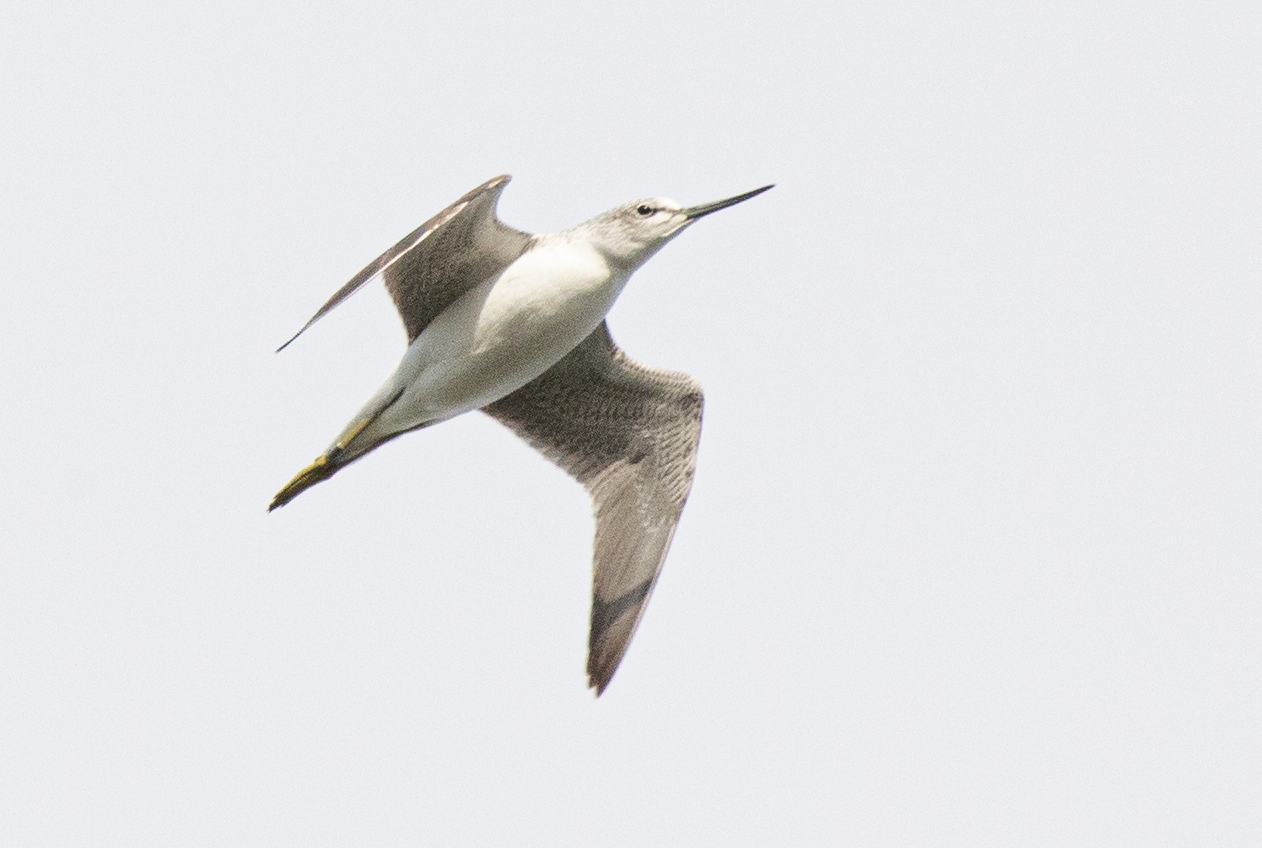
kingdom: Animalia
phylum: Chordata
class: Aves
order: Charadriiformes
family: Scolopacidae
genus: Tringa
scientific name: Tringa nebularia
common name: Common greenshank
